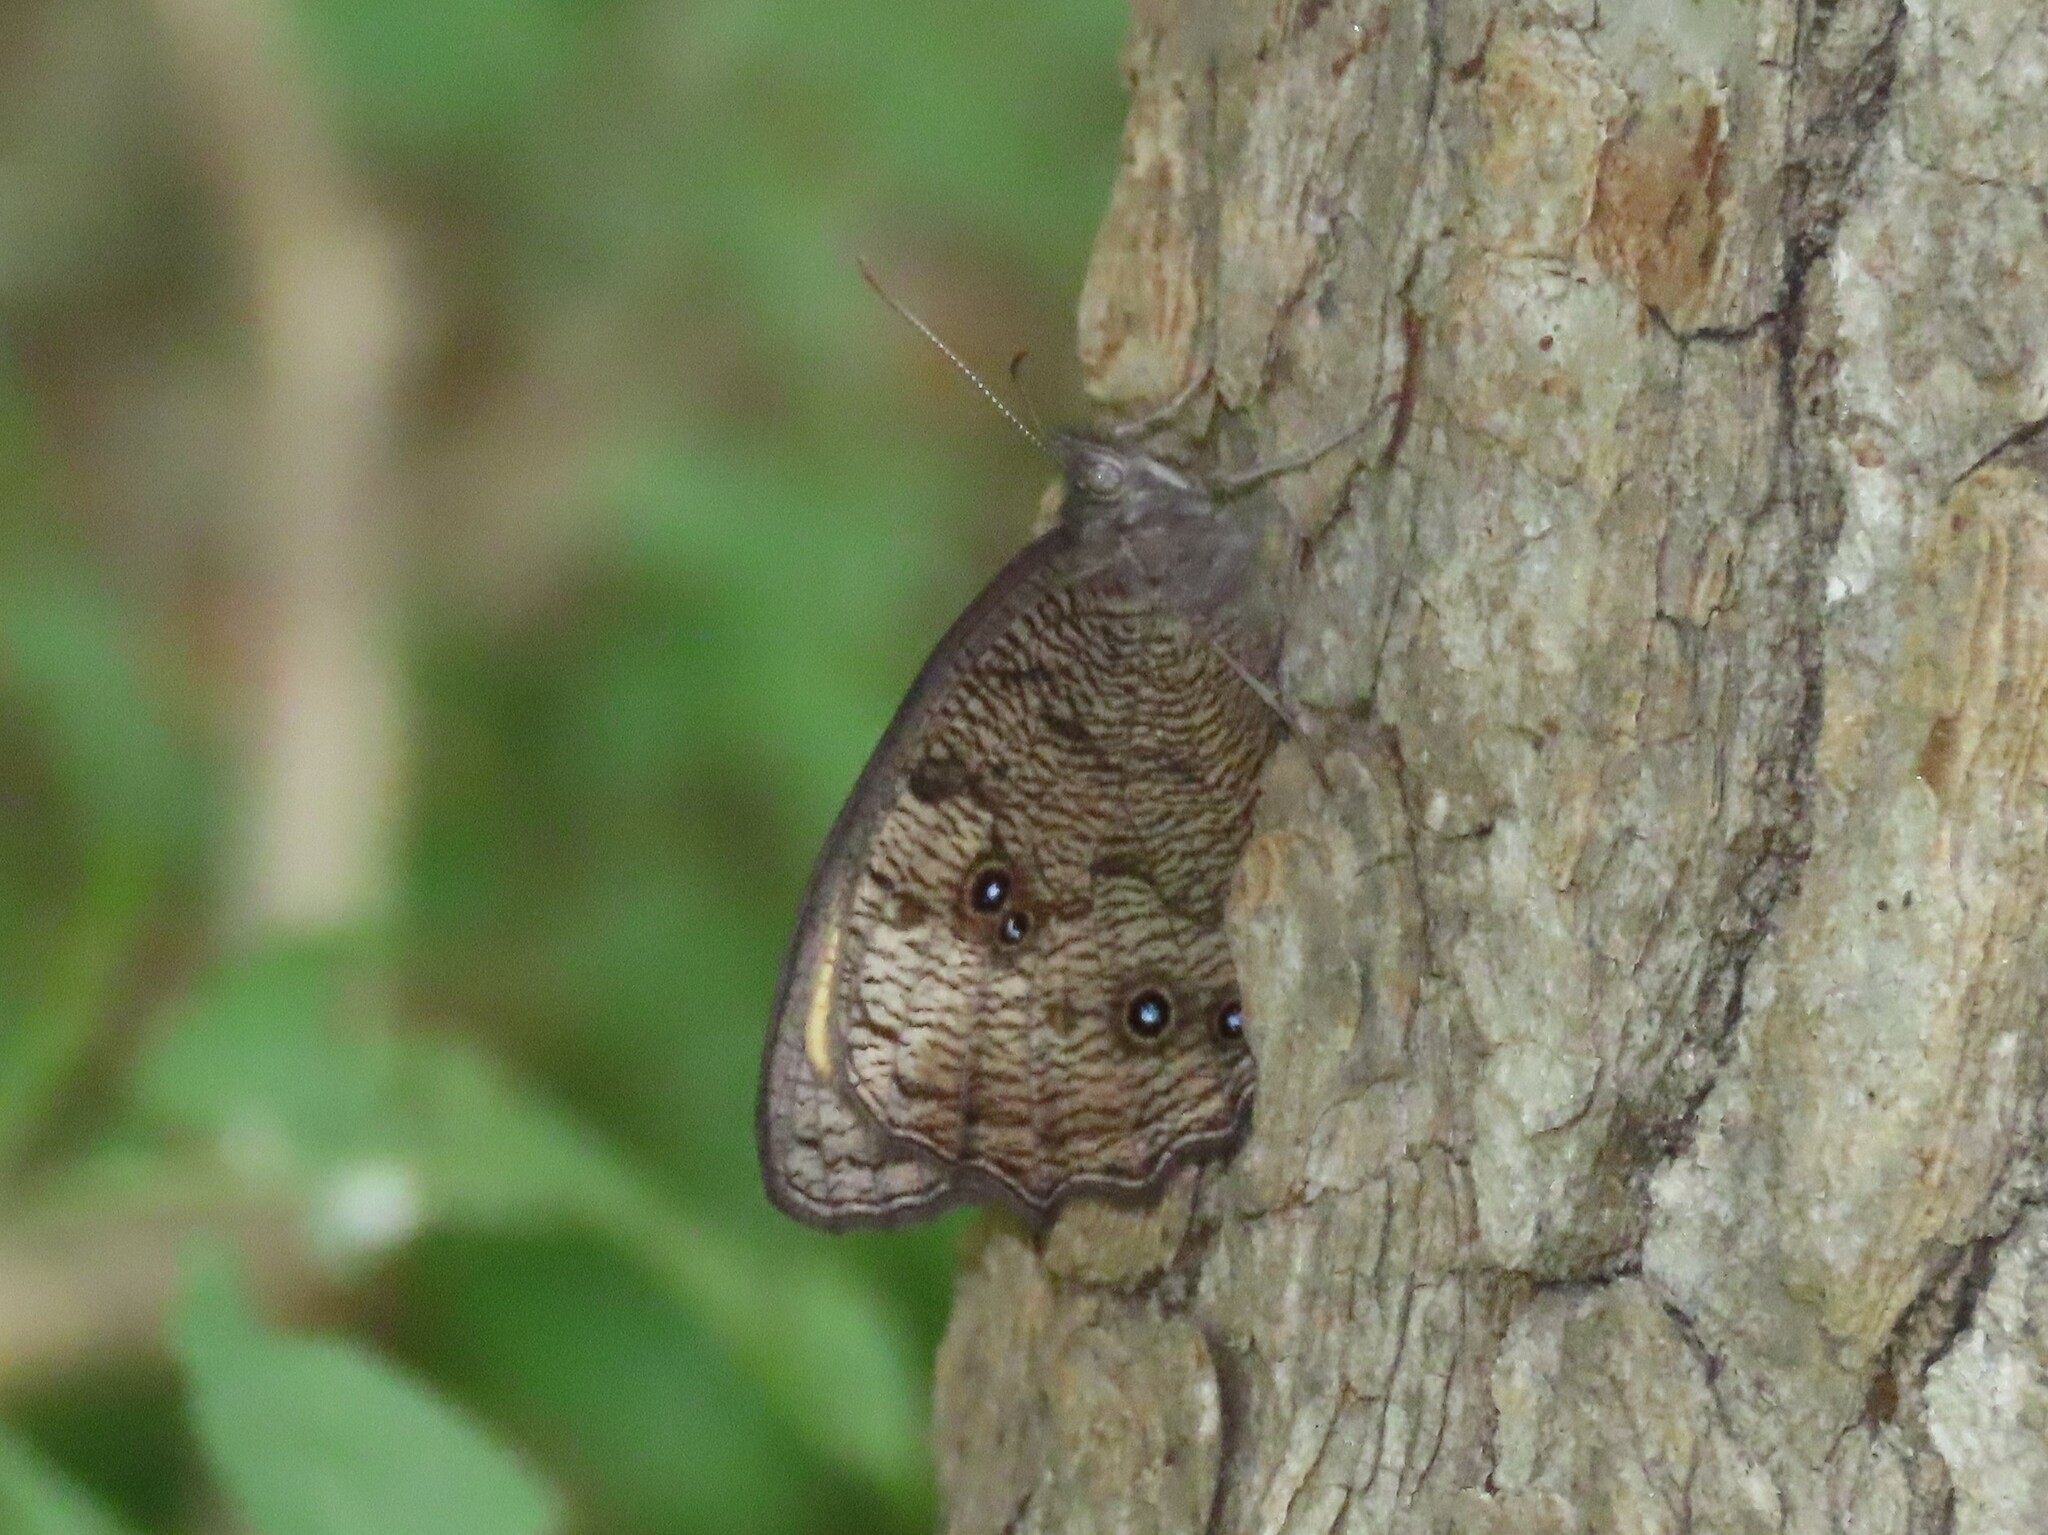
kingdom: Animalia
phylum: Arthropoda
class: Insecta
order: Lepidoptera
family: Nymphalidae
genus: Cercyonis
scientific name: Cercyonis pegala
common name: Common wood-nymph
